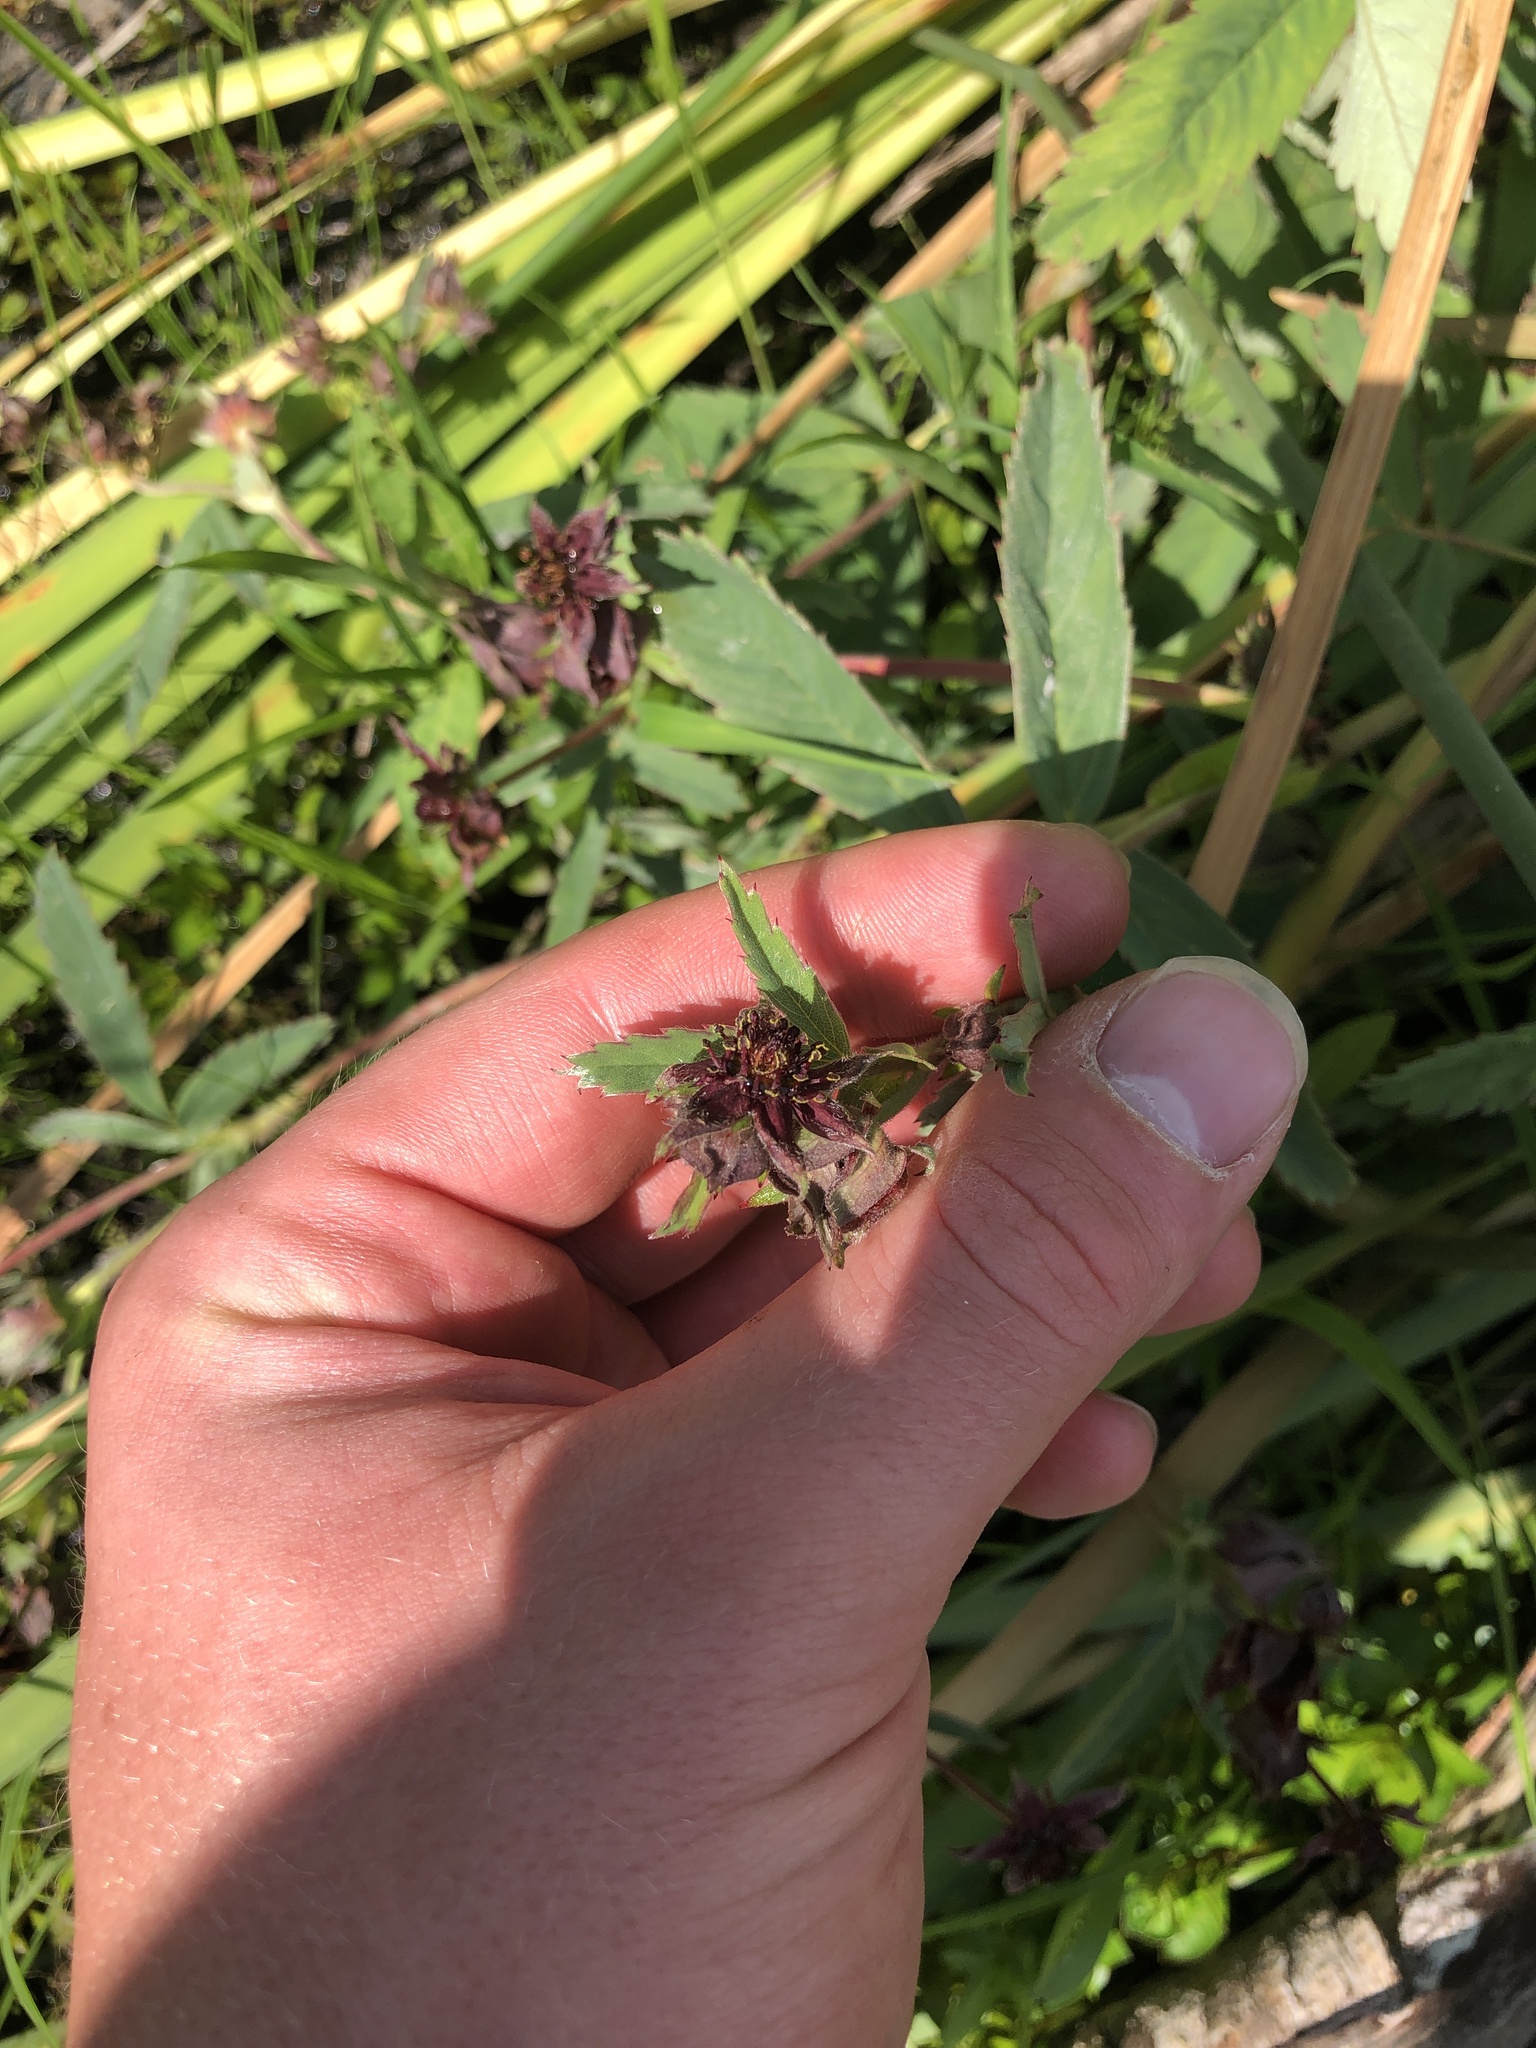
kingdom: Plantae
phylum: Tracheophyta
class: Magnoliopsida
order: Rosales
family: Rosaceae
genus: Comarum
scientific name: Comarum palustre
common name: Marsh cinquefoil
